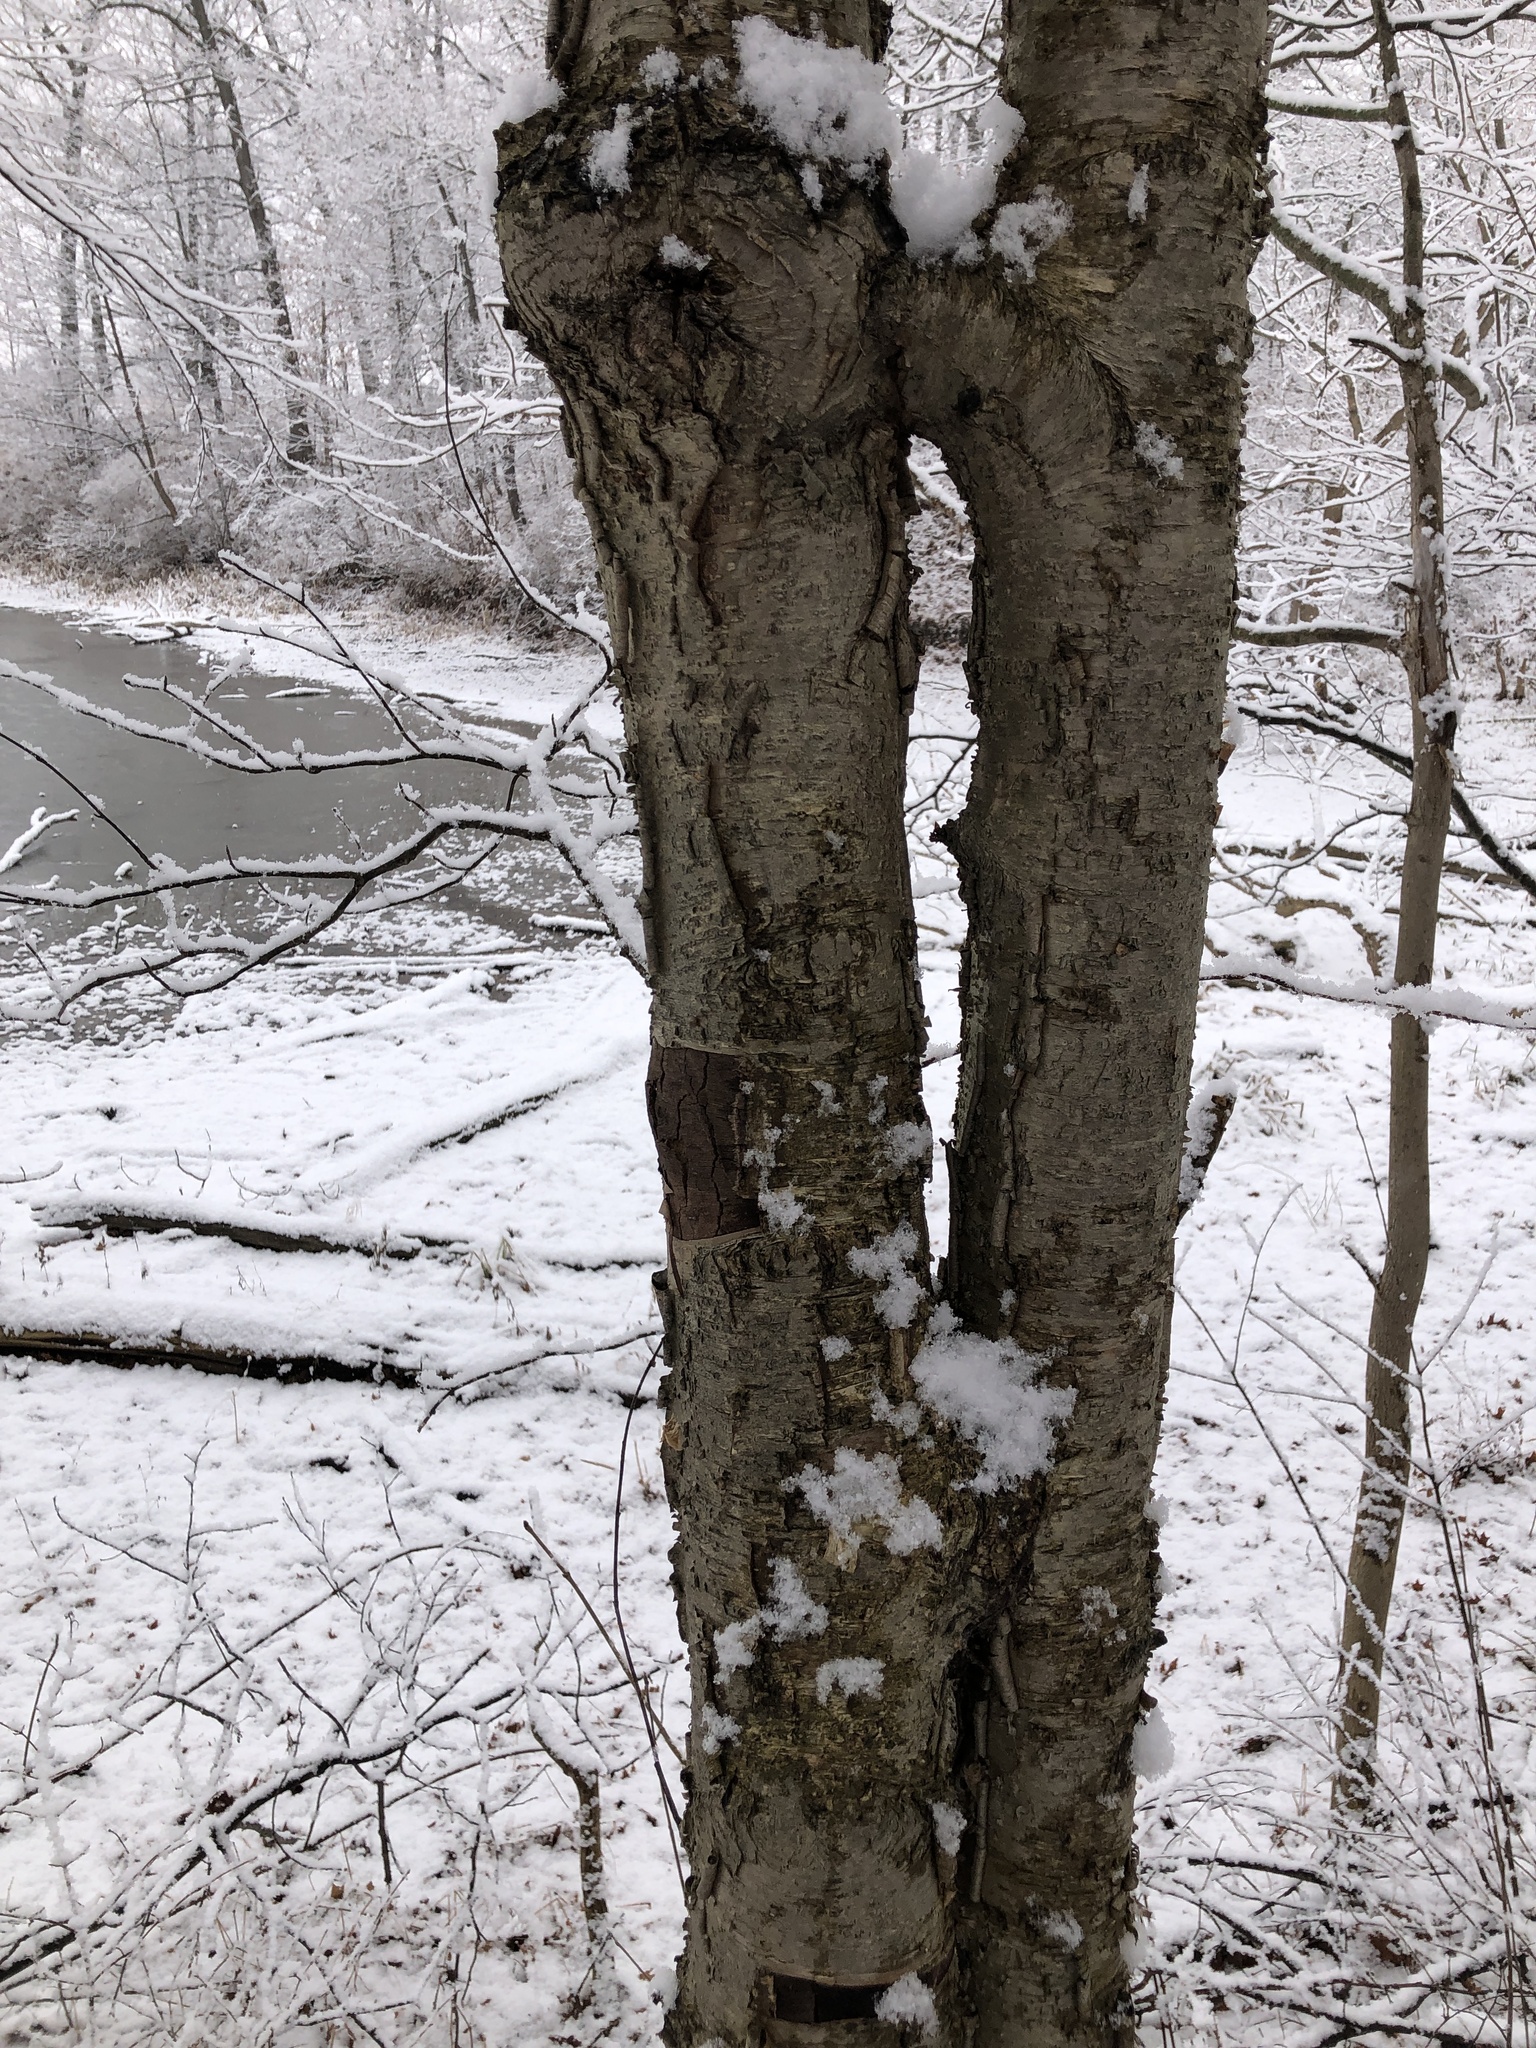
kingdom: Plantae
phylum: Tracheophyta
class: Magnoliopsida
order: Fagales
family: Betulaceae
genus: Betula
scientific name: Betula alleghaniensis
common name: Yellow birch
